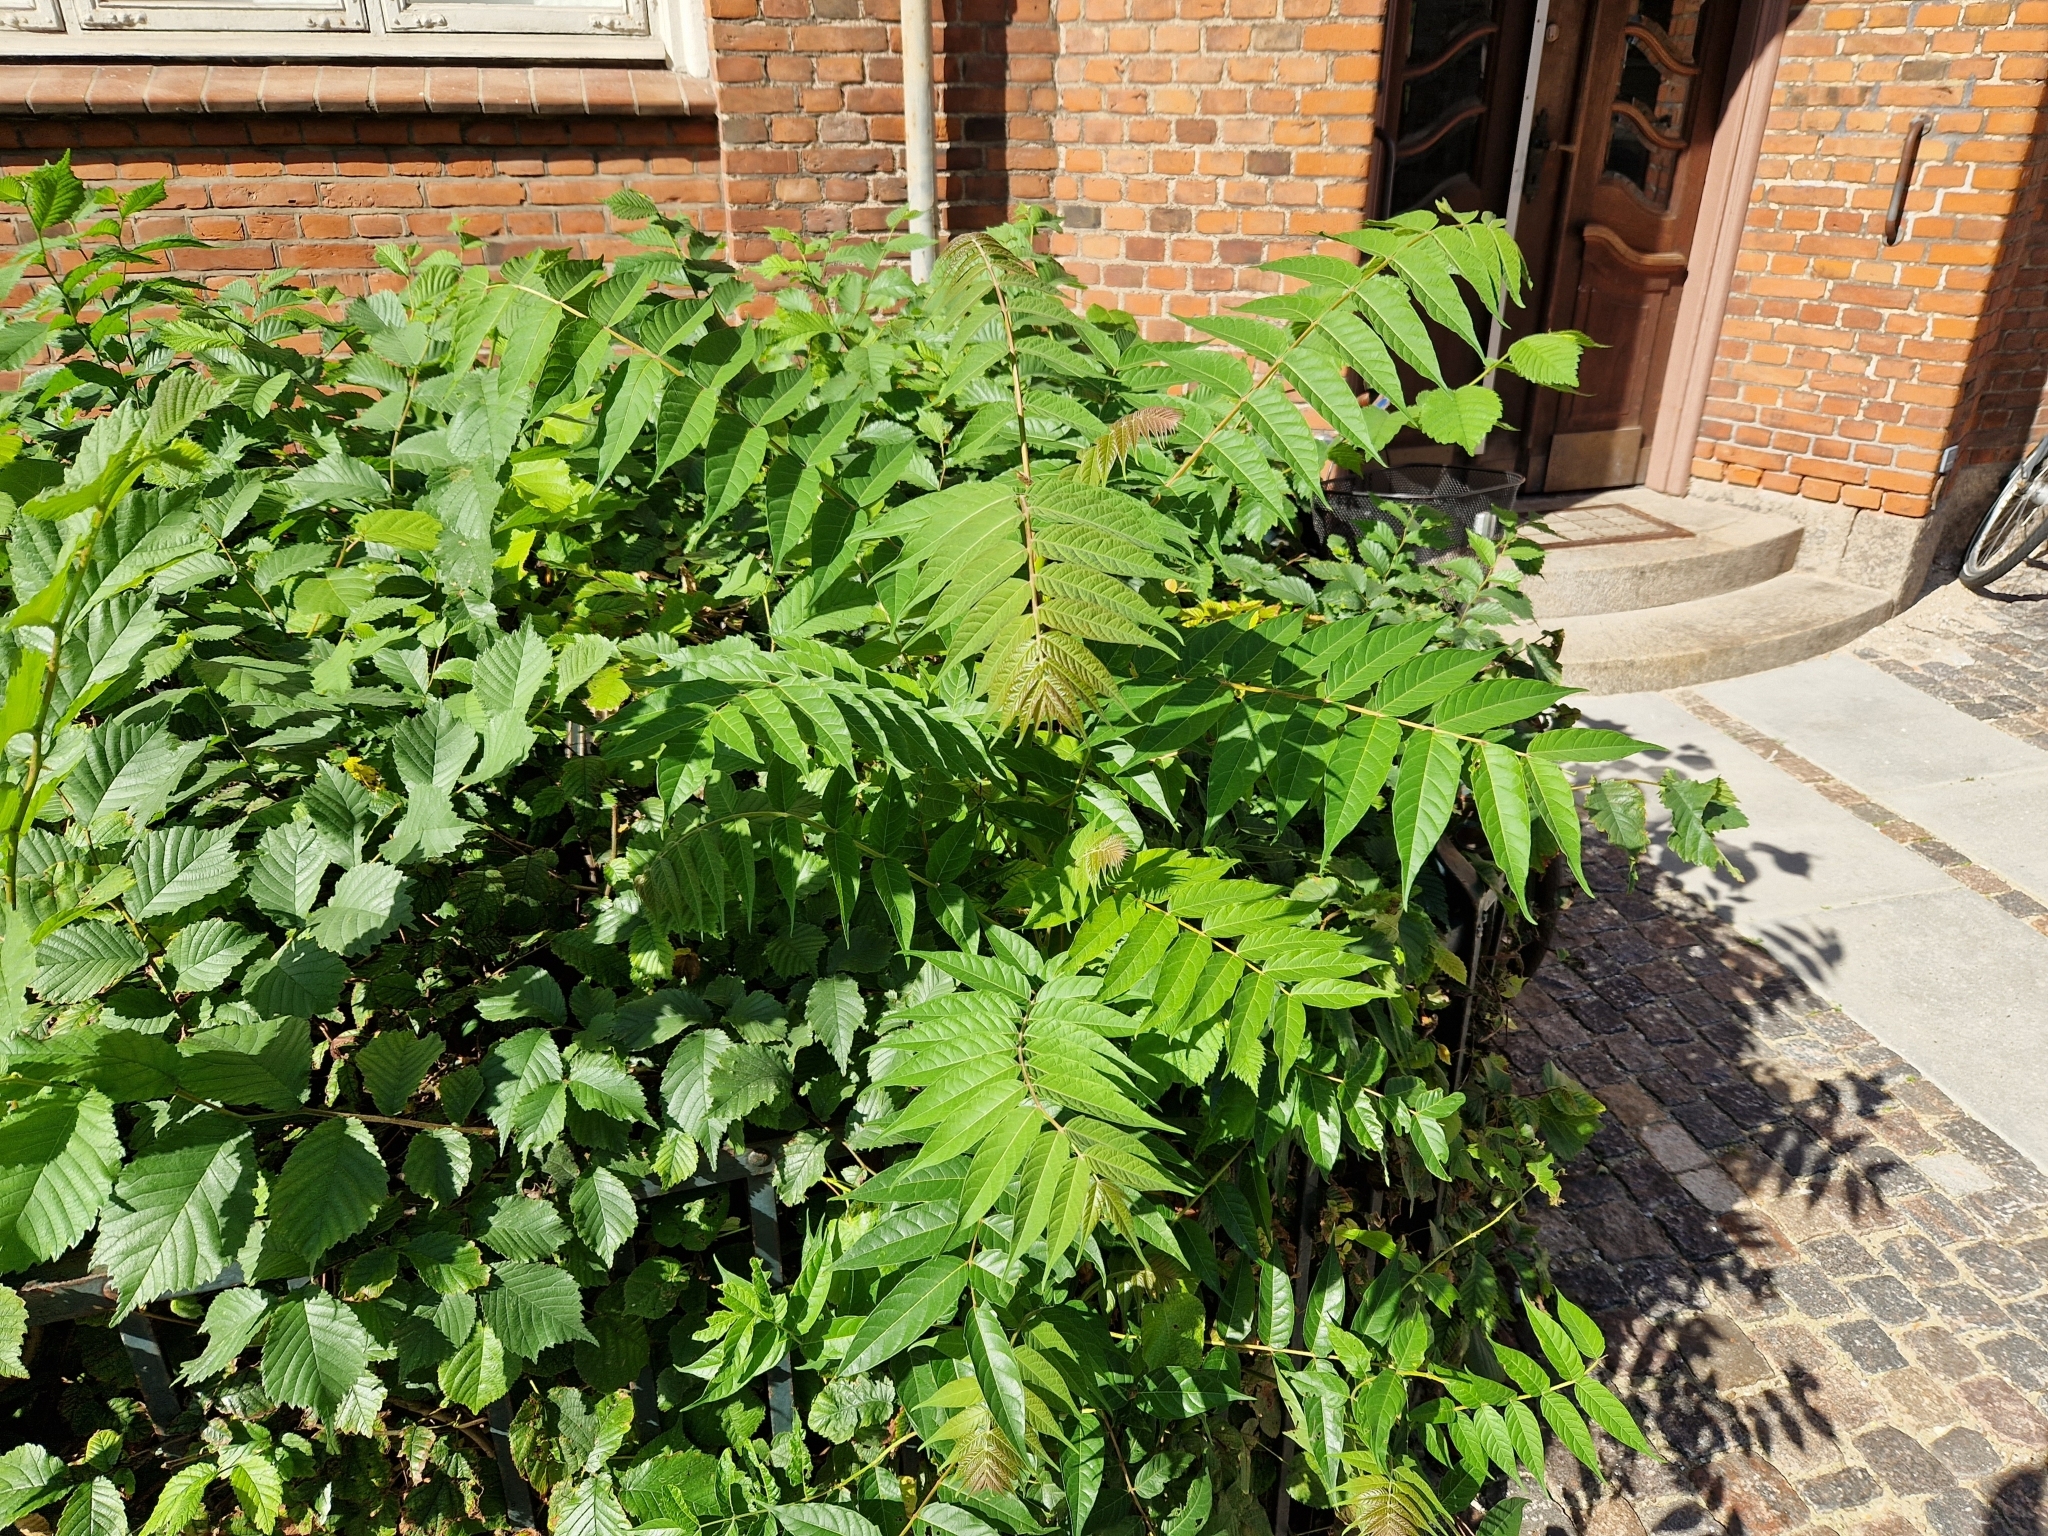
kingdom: Plantae
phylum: Tracheophyta
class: Magnoliopsida
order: Sapindales
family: Simaroubaceae
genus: Ailanthus
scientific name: Ailanthus altissima
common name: Tree-of-heaven
